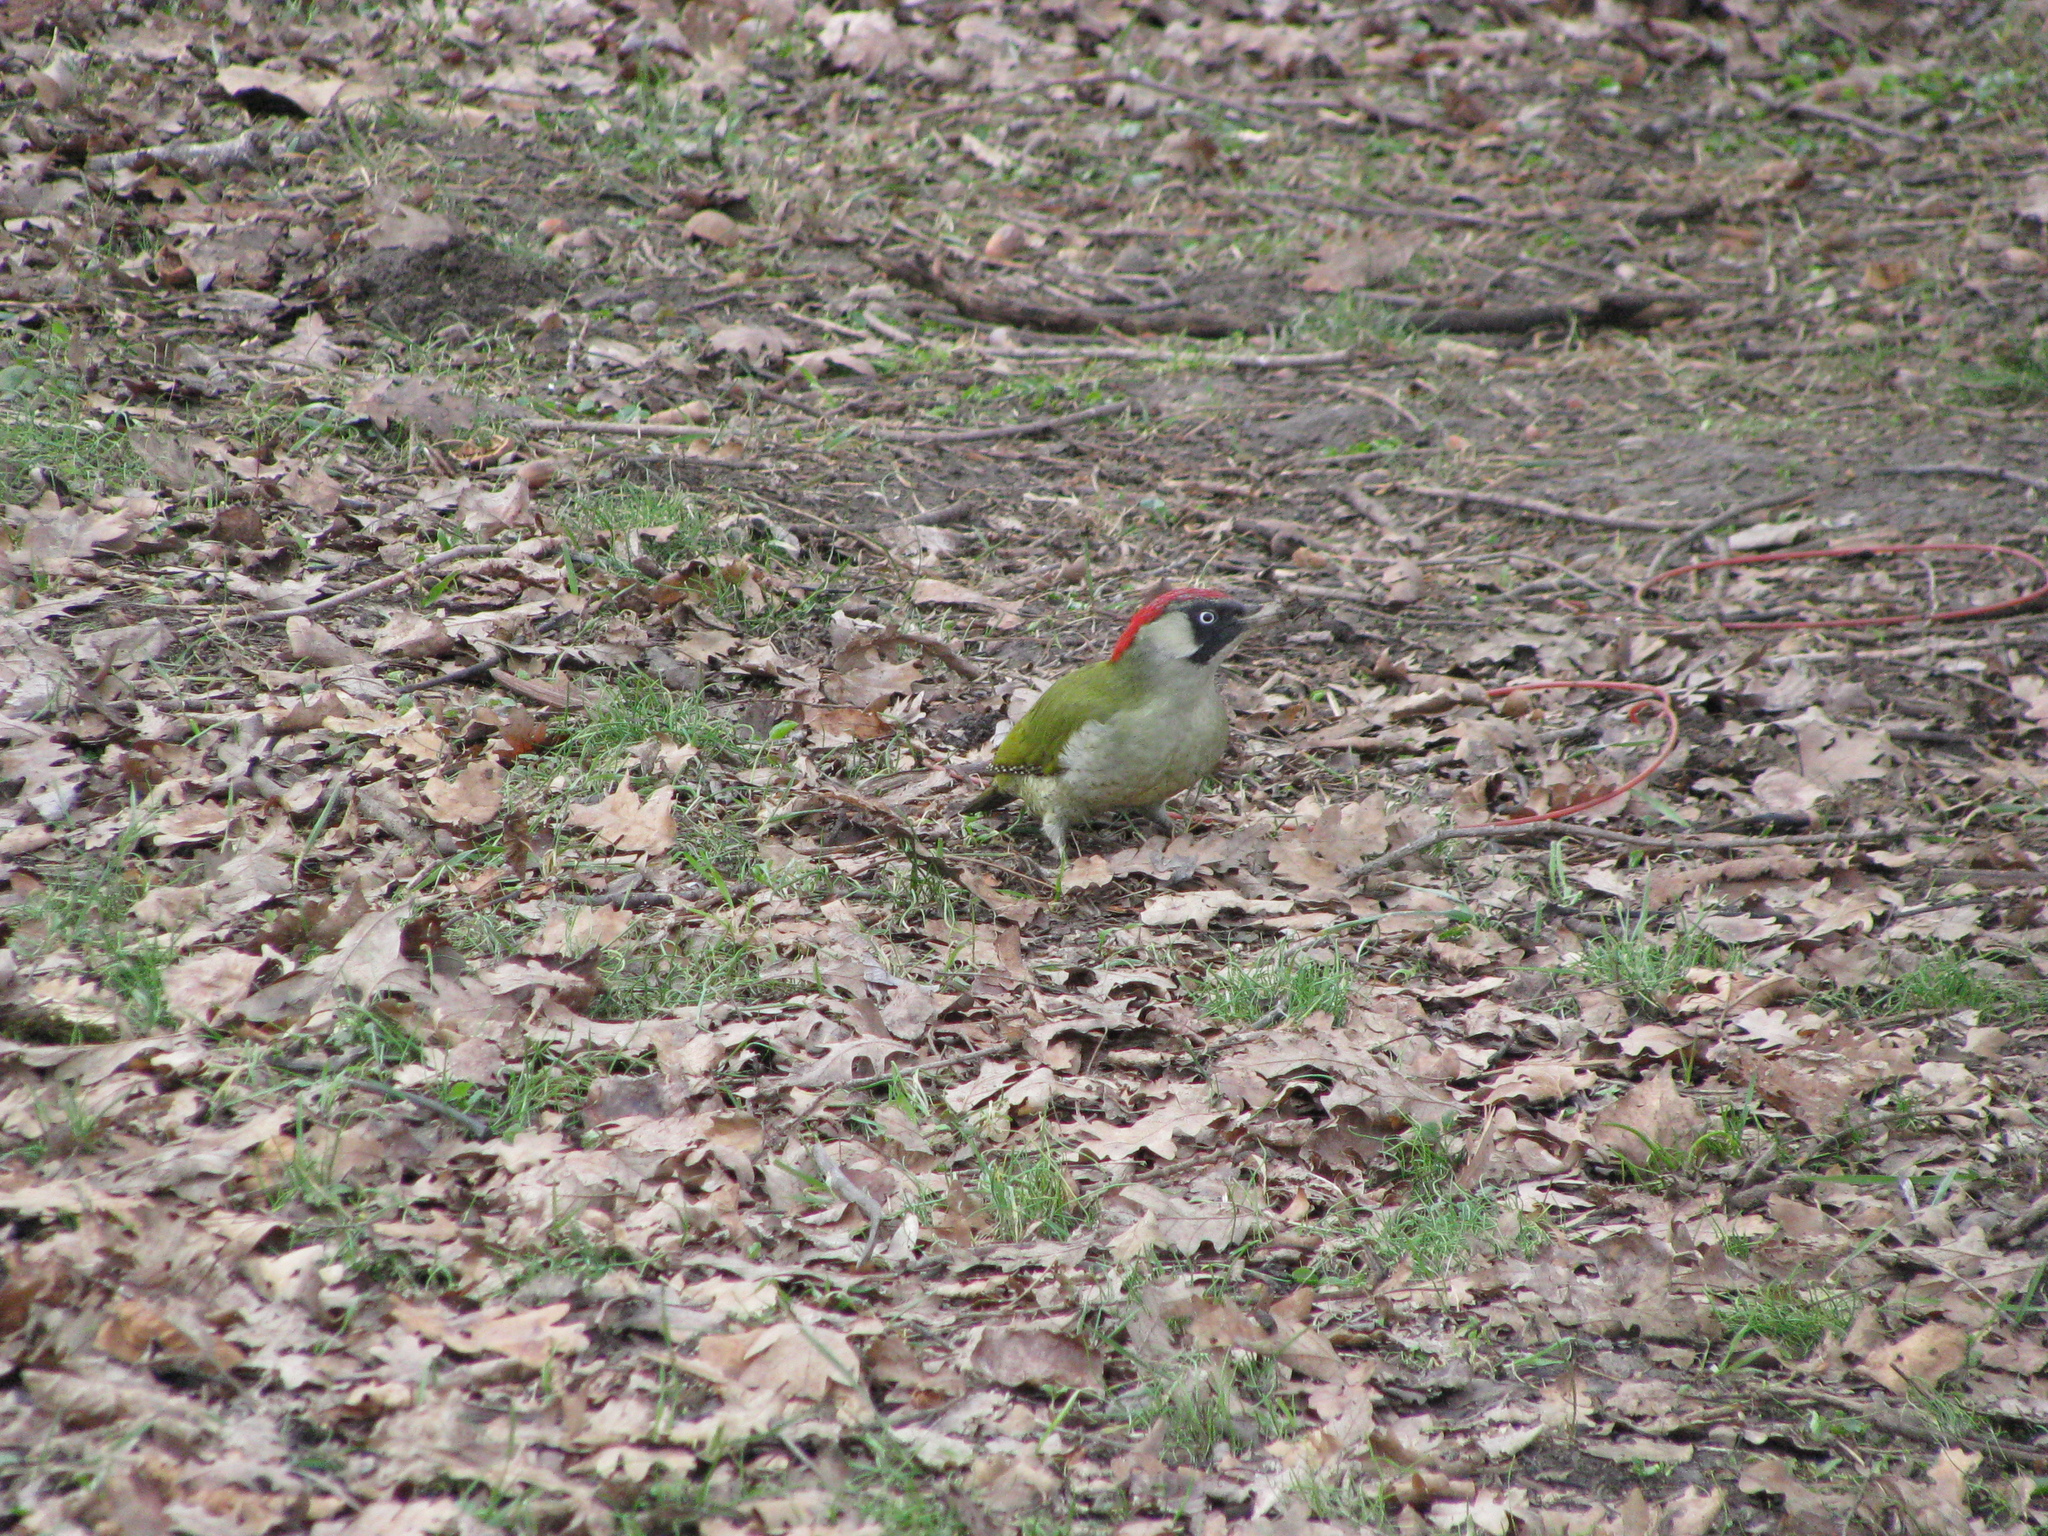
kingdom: Animalia
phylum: Chordata
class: Aves
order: Piciformes
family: Picidae
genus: Picus
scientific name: Picus viridis
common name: European green woodpecker
